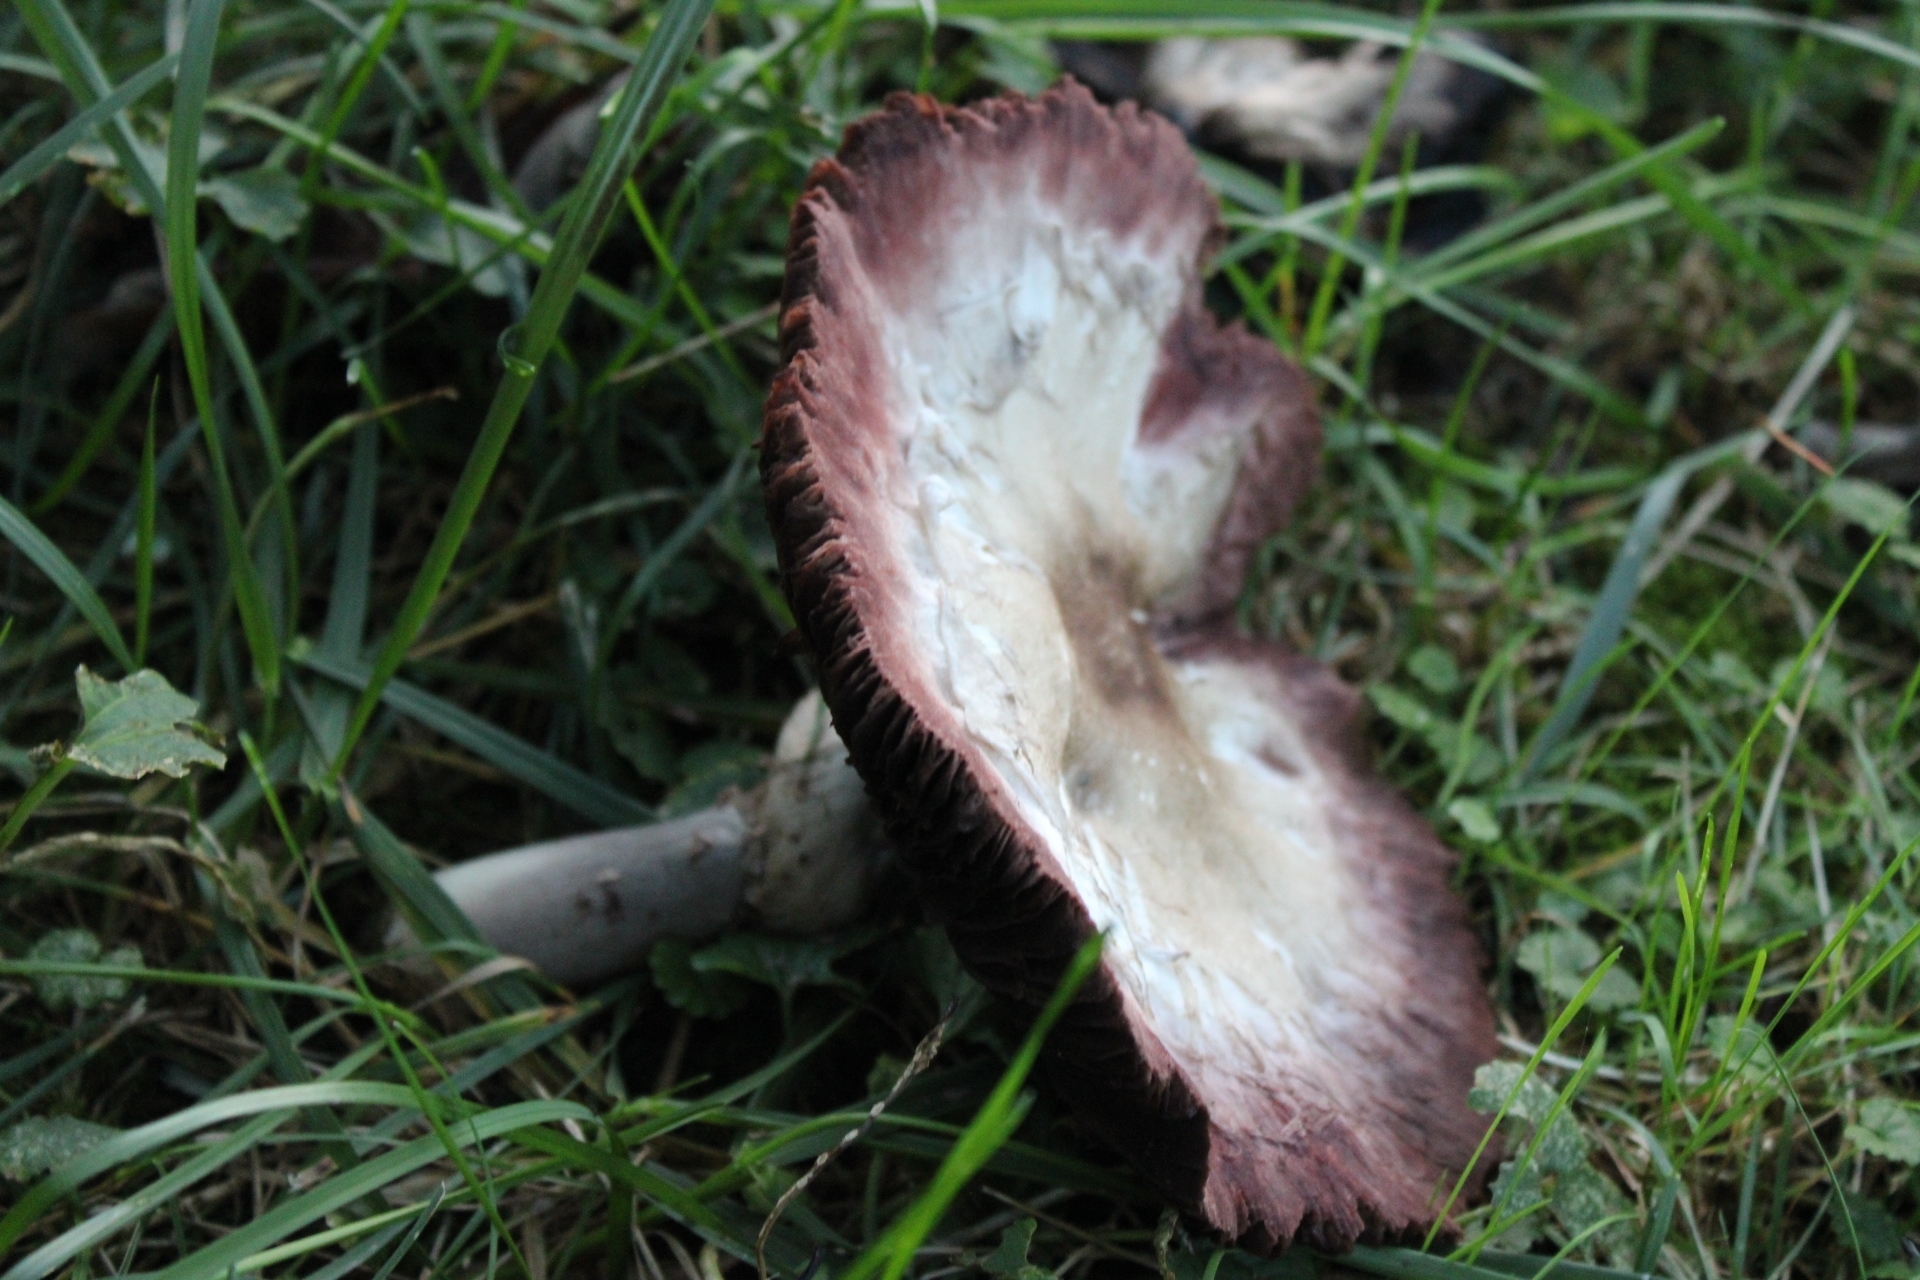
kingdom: Fungi
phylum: Basidiomycota
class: Agaricomycetes
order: Agaricales
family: Agaricaceae
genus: Agaricus
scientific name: Agaricus
